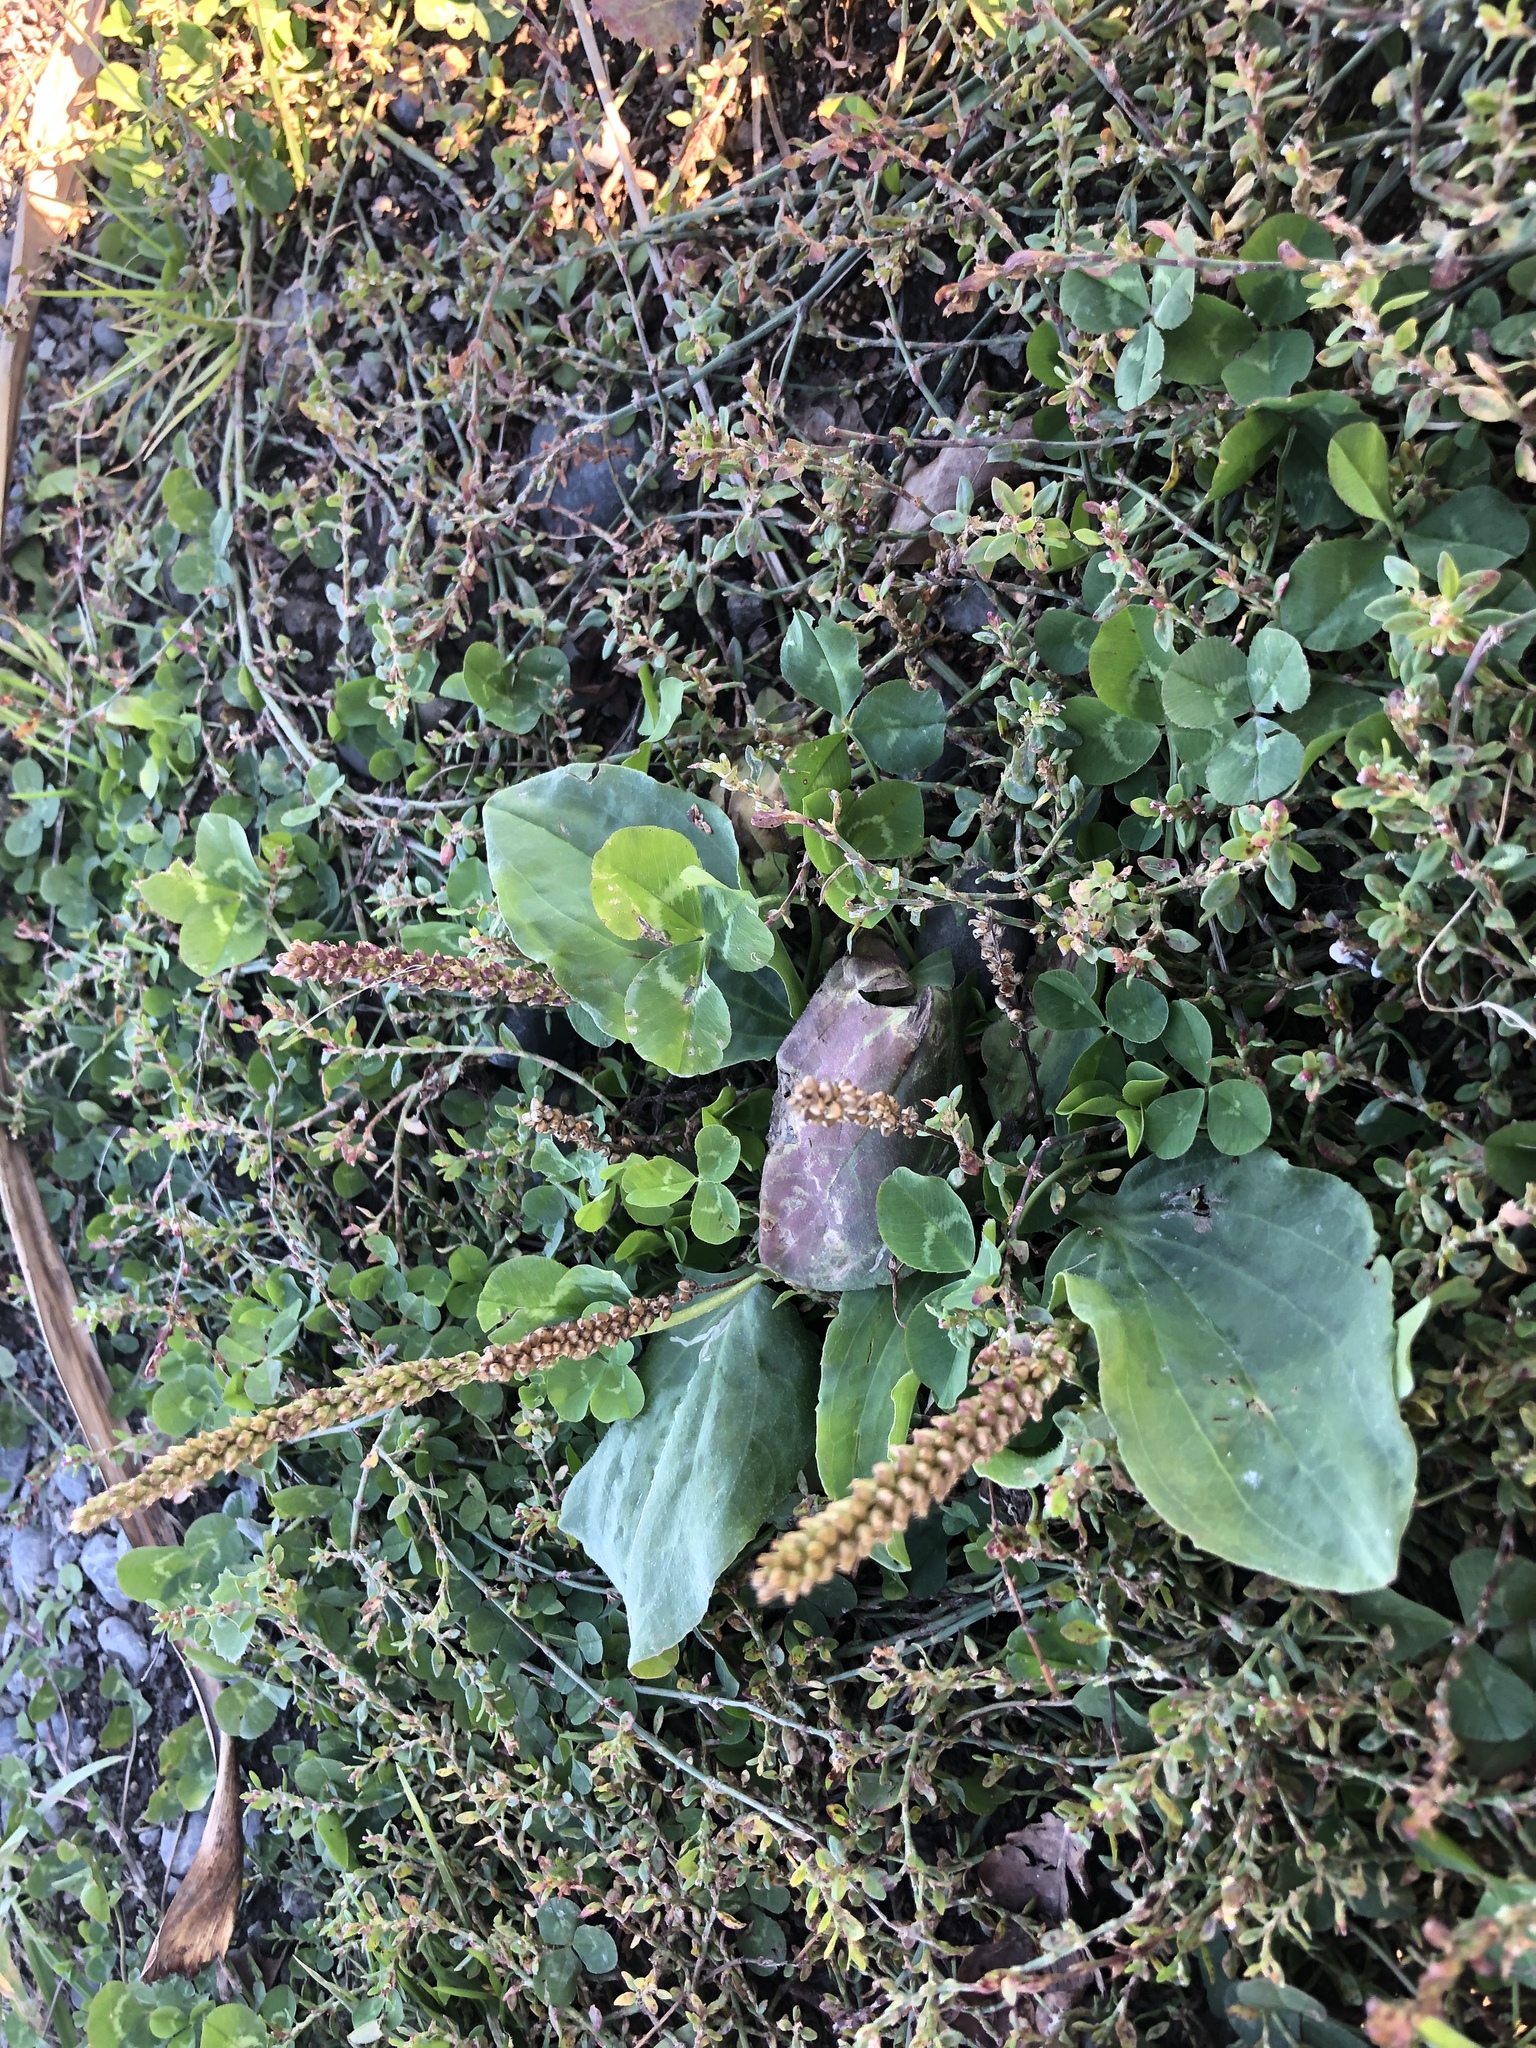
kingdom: Plantae
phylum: Tracheophyta
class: Magnoliopsida
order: Lamiales
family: Plantaginaceae
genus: Plantago
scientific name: Plantago major
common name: Common plantain
